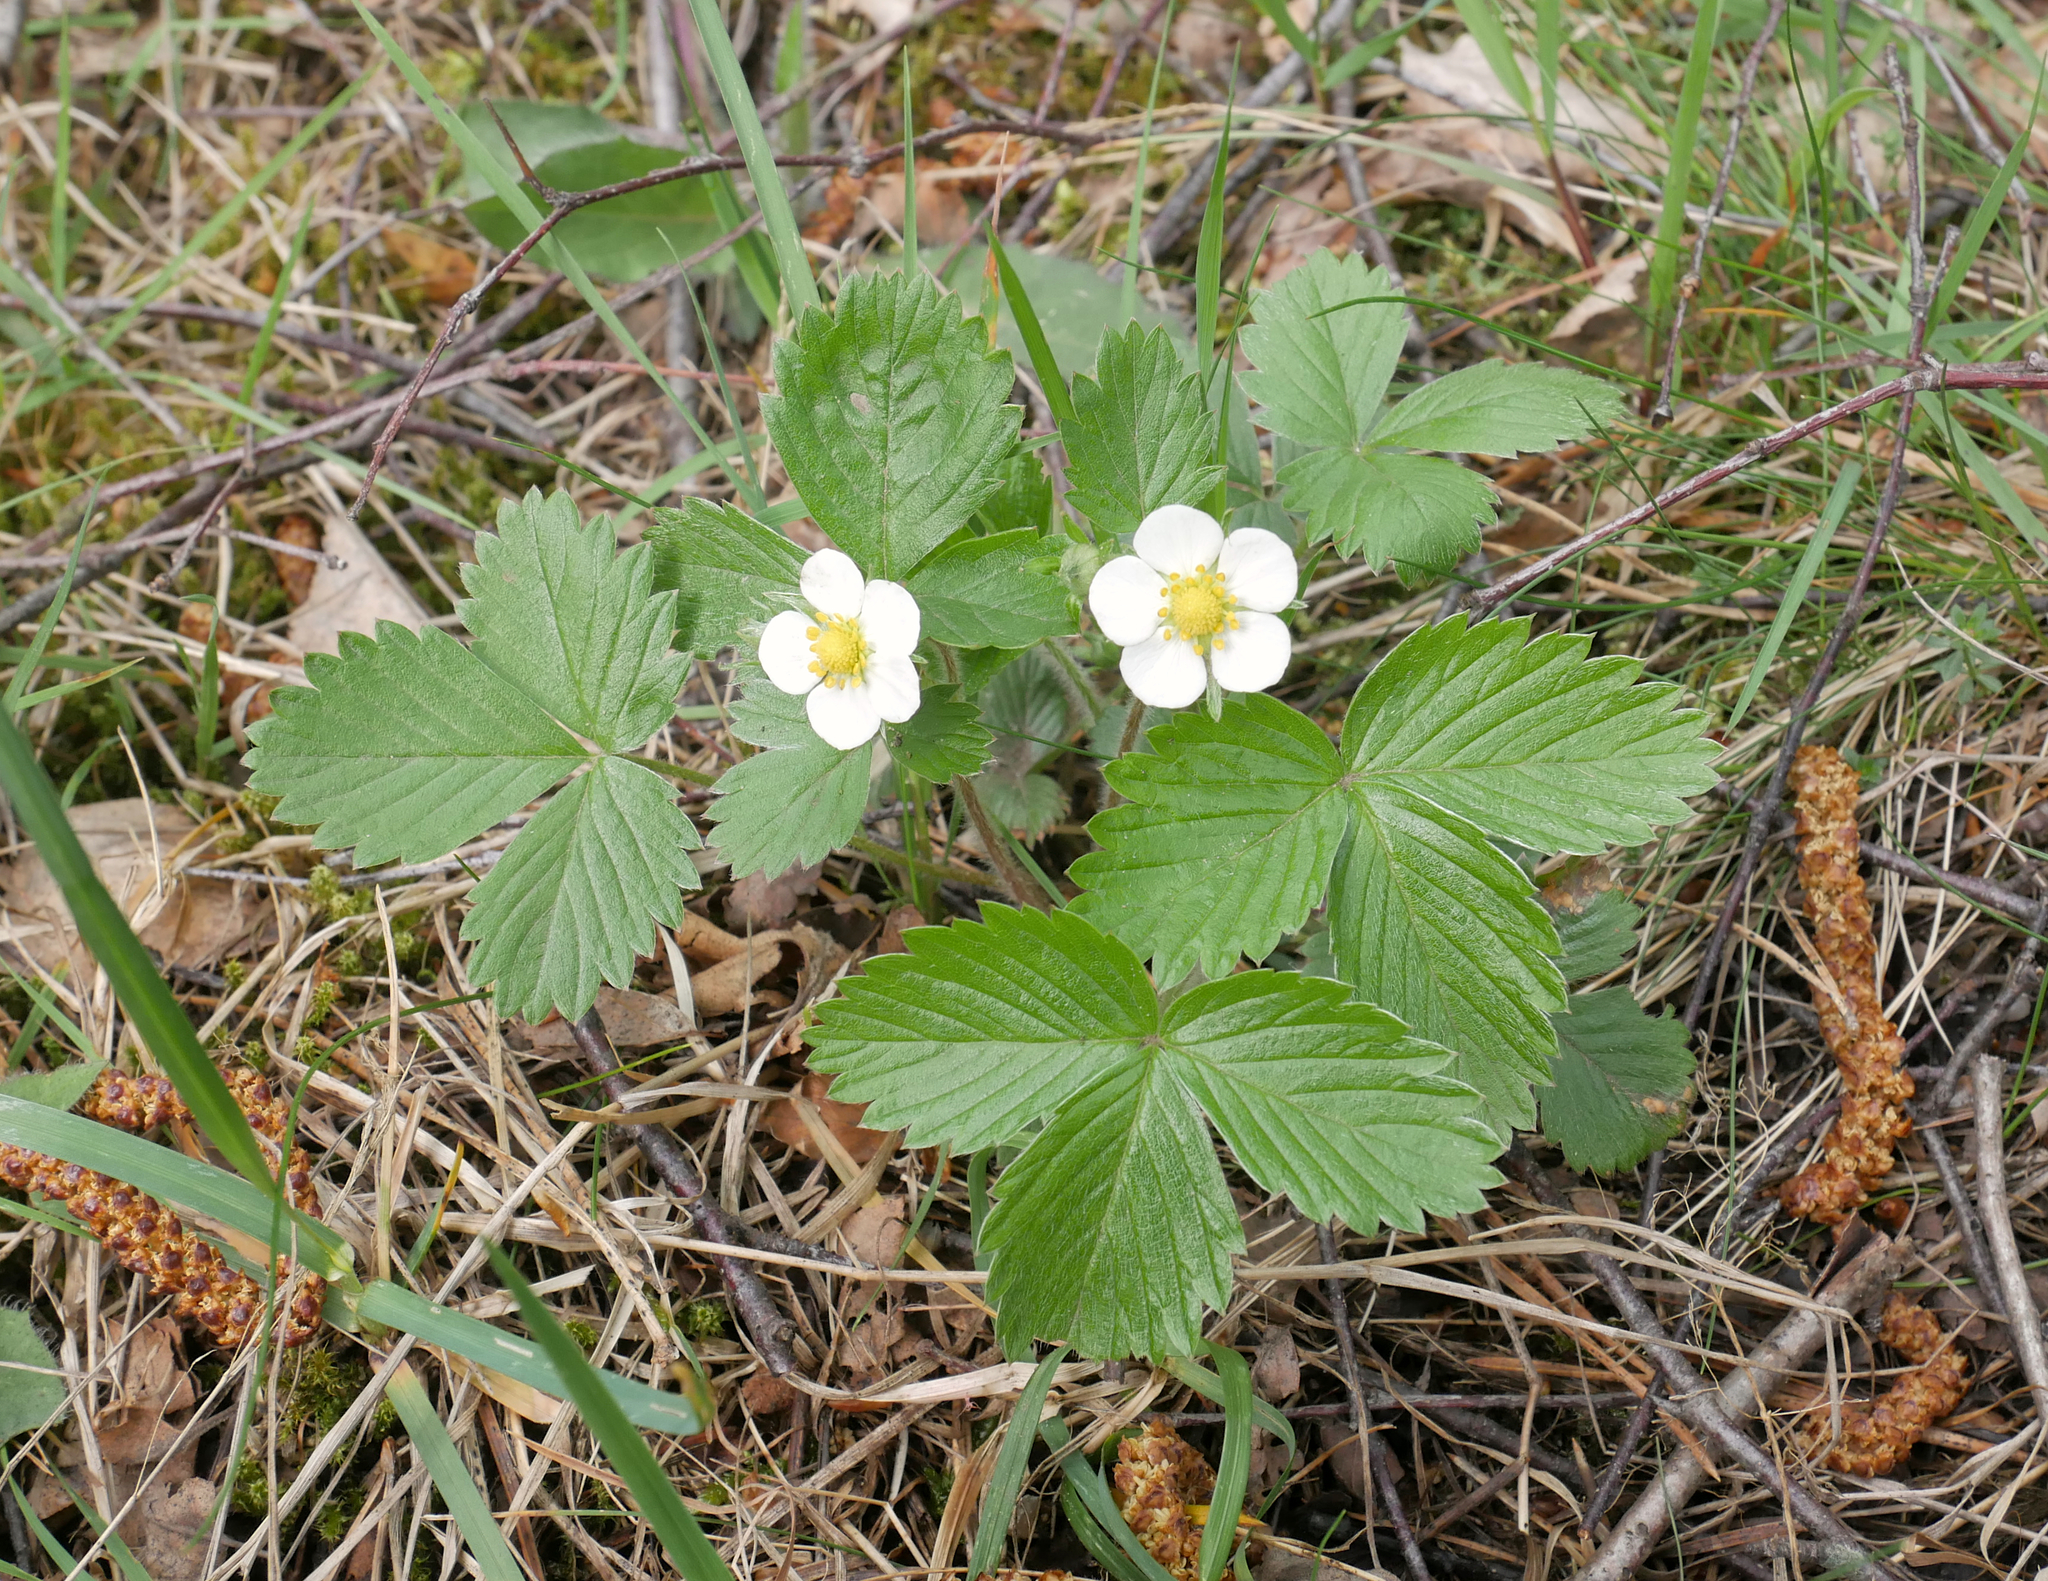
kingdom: Plantae
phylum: Tracheophyta
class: Magnoliopsida
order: Rosales
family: Rosaceae
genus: Fragaria
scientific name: Fragaria vesca
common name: Wild strawberry
